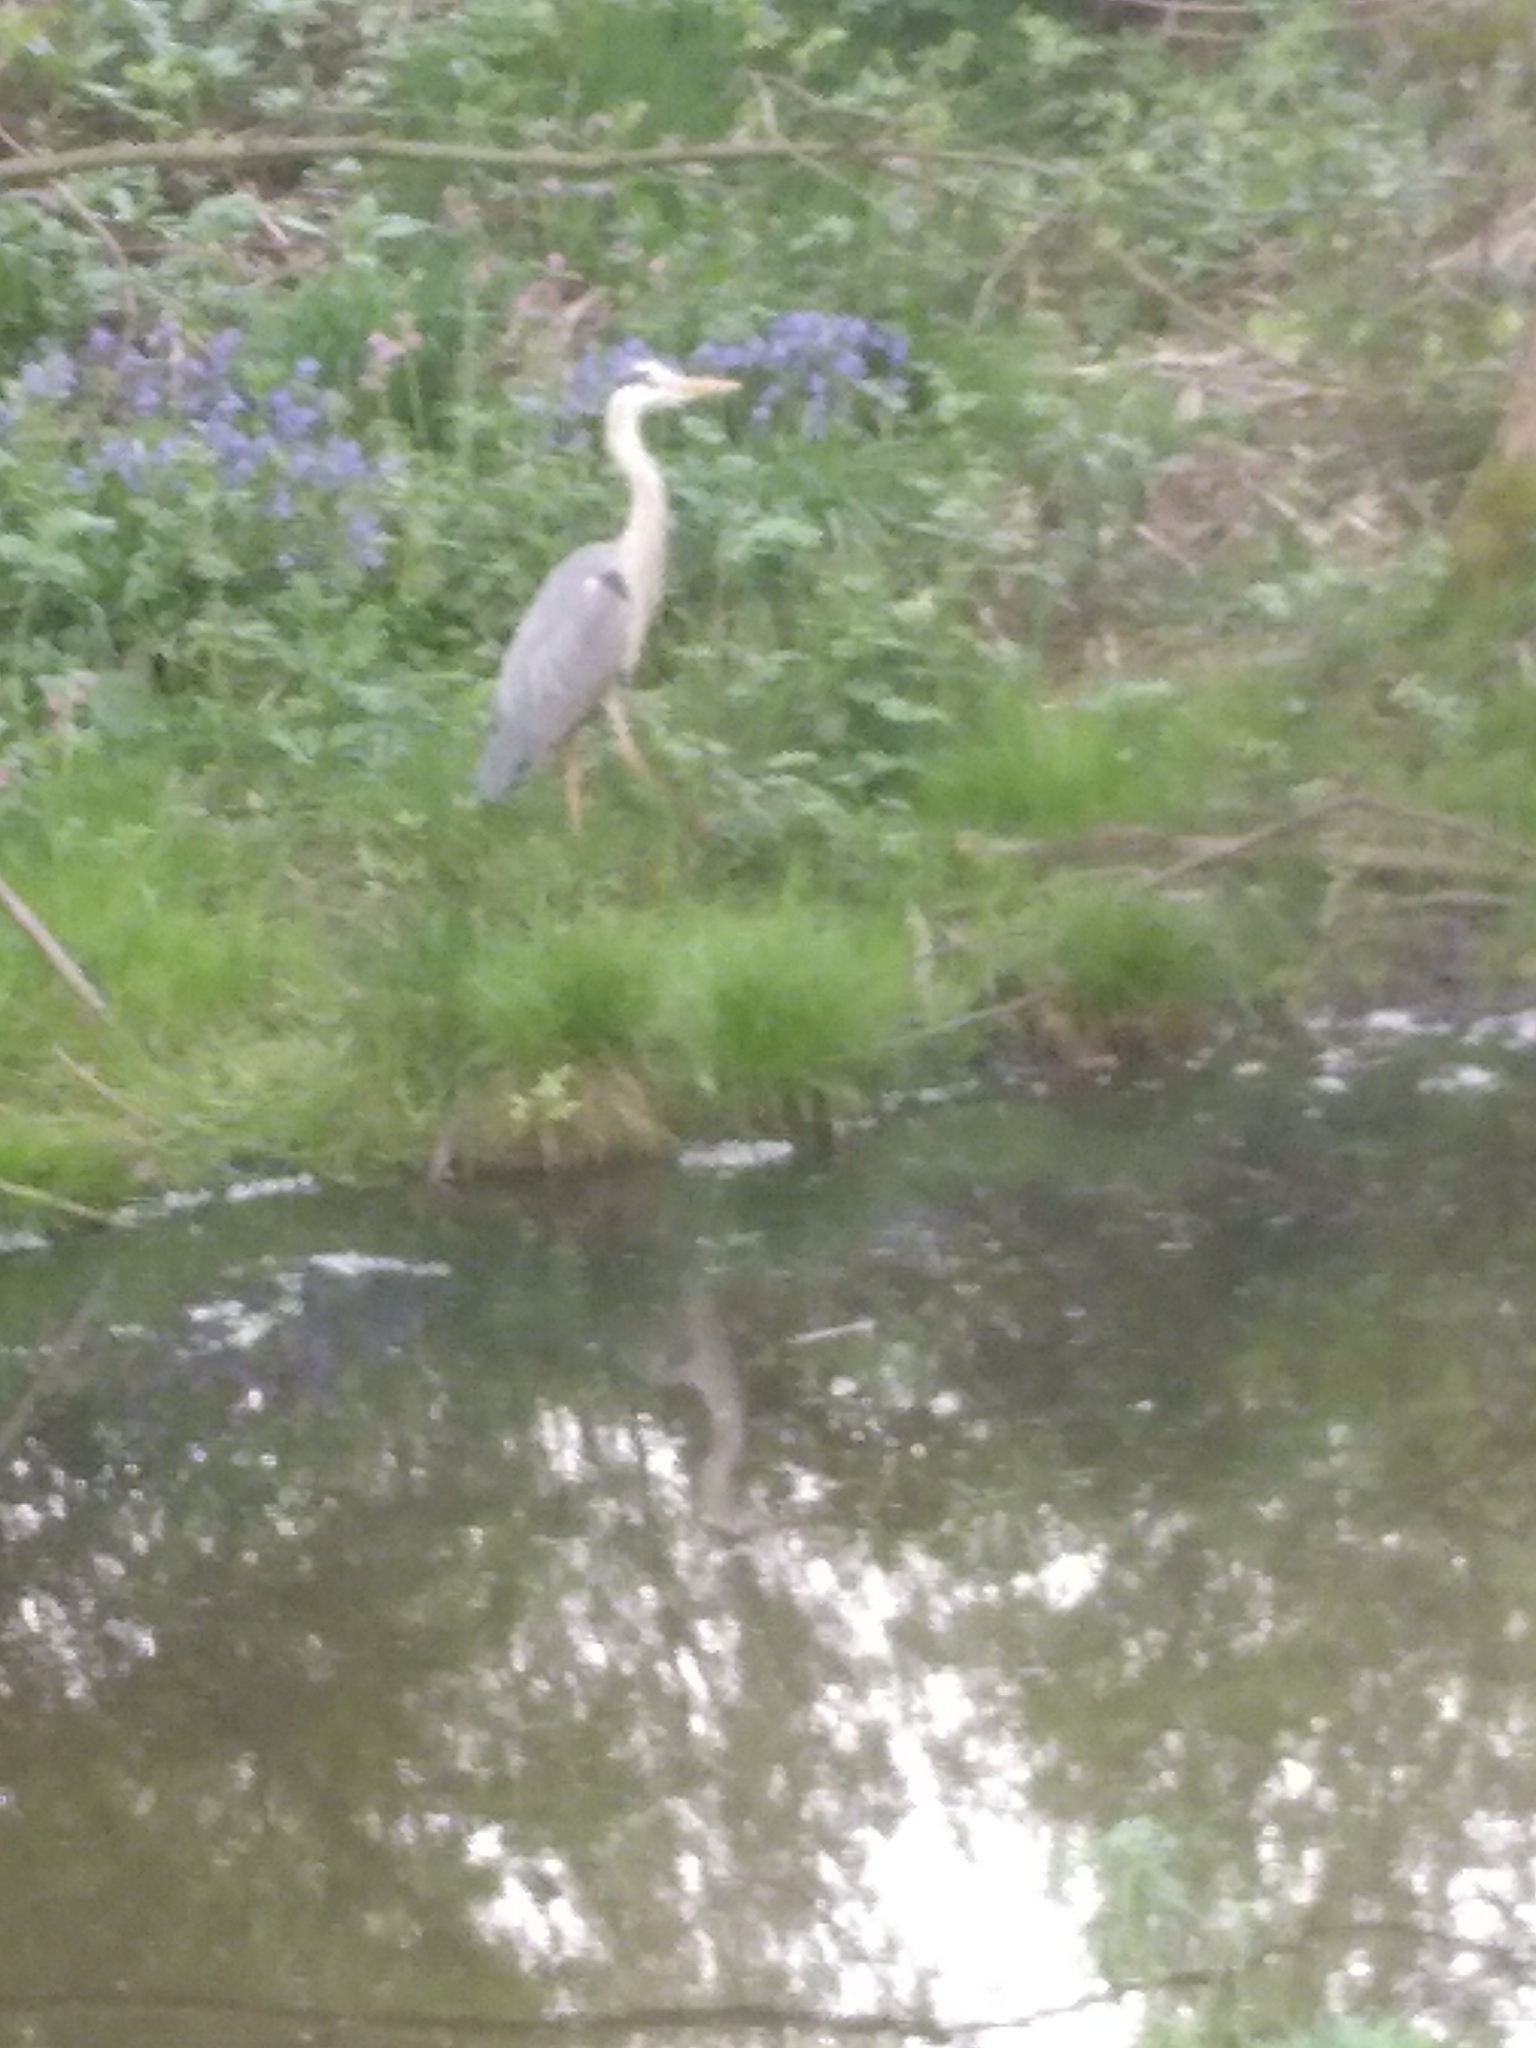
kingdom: Animalia
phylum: Chordata
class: Aves
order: Pelecaniformes
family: Ardeidae
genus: Ardea
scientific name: Ardea cinerea
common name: Grey heron
